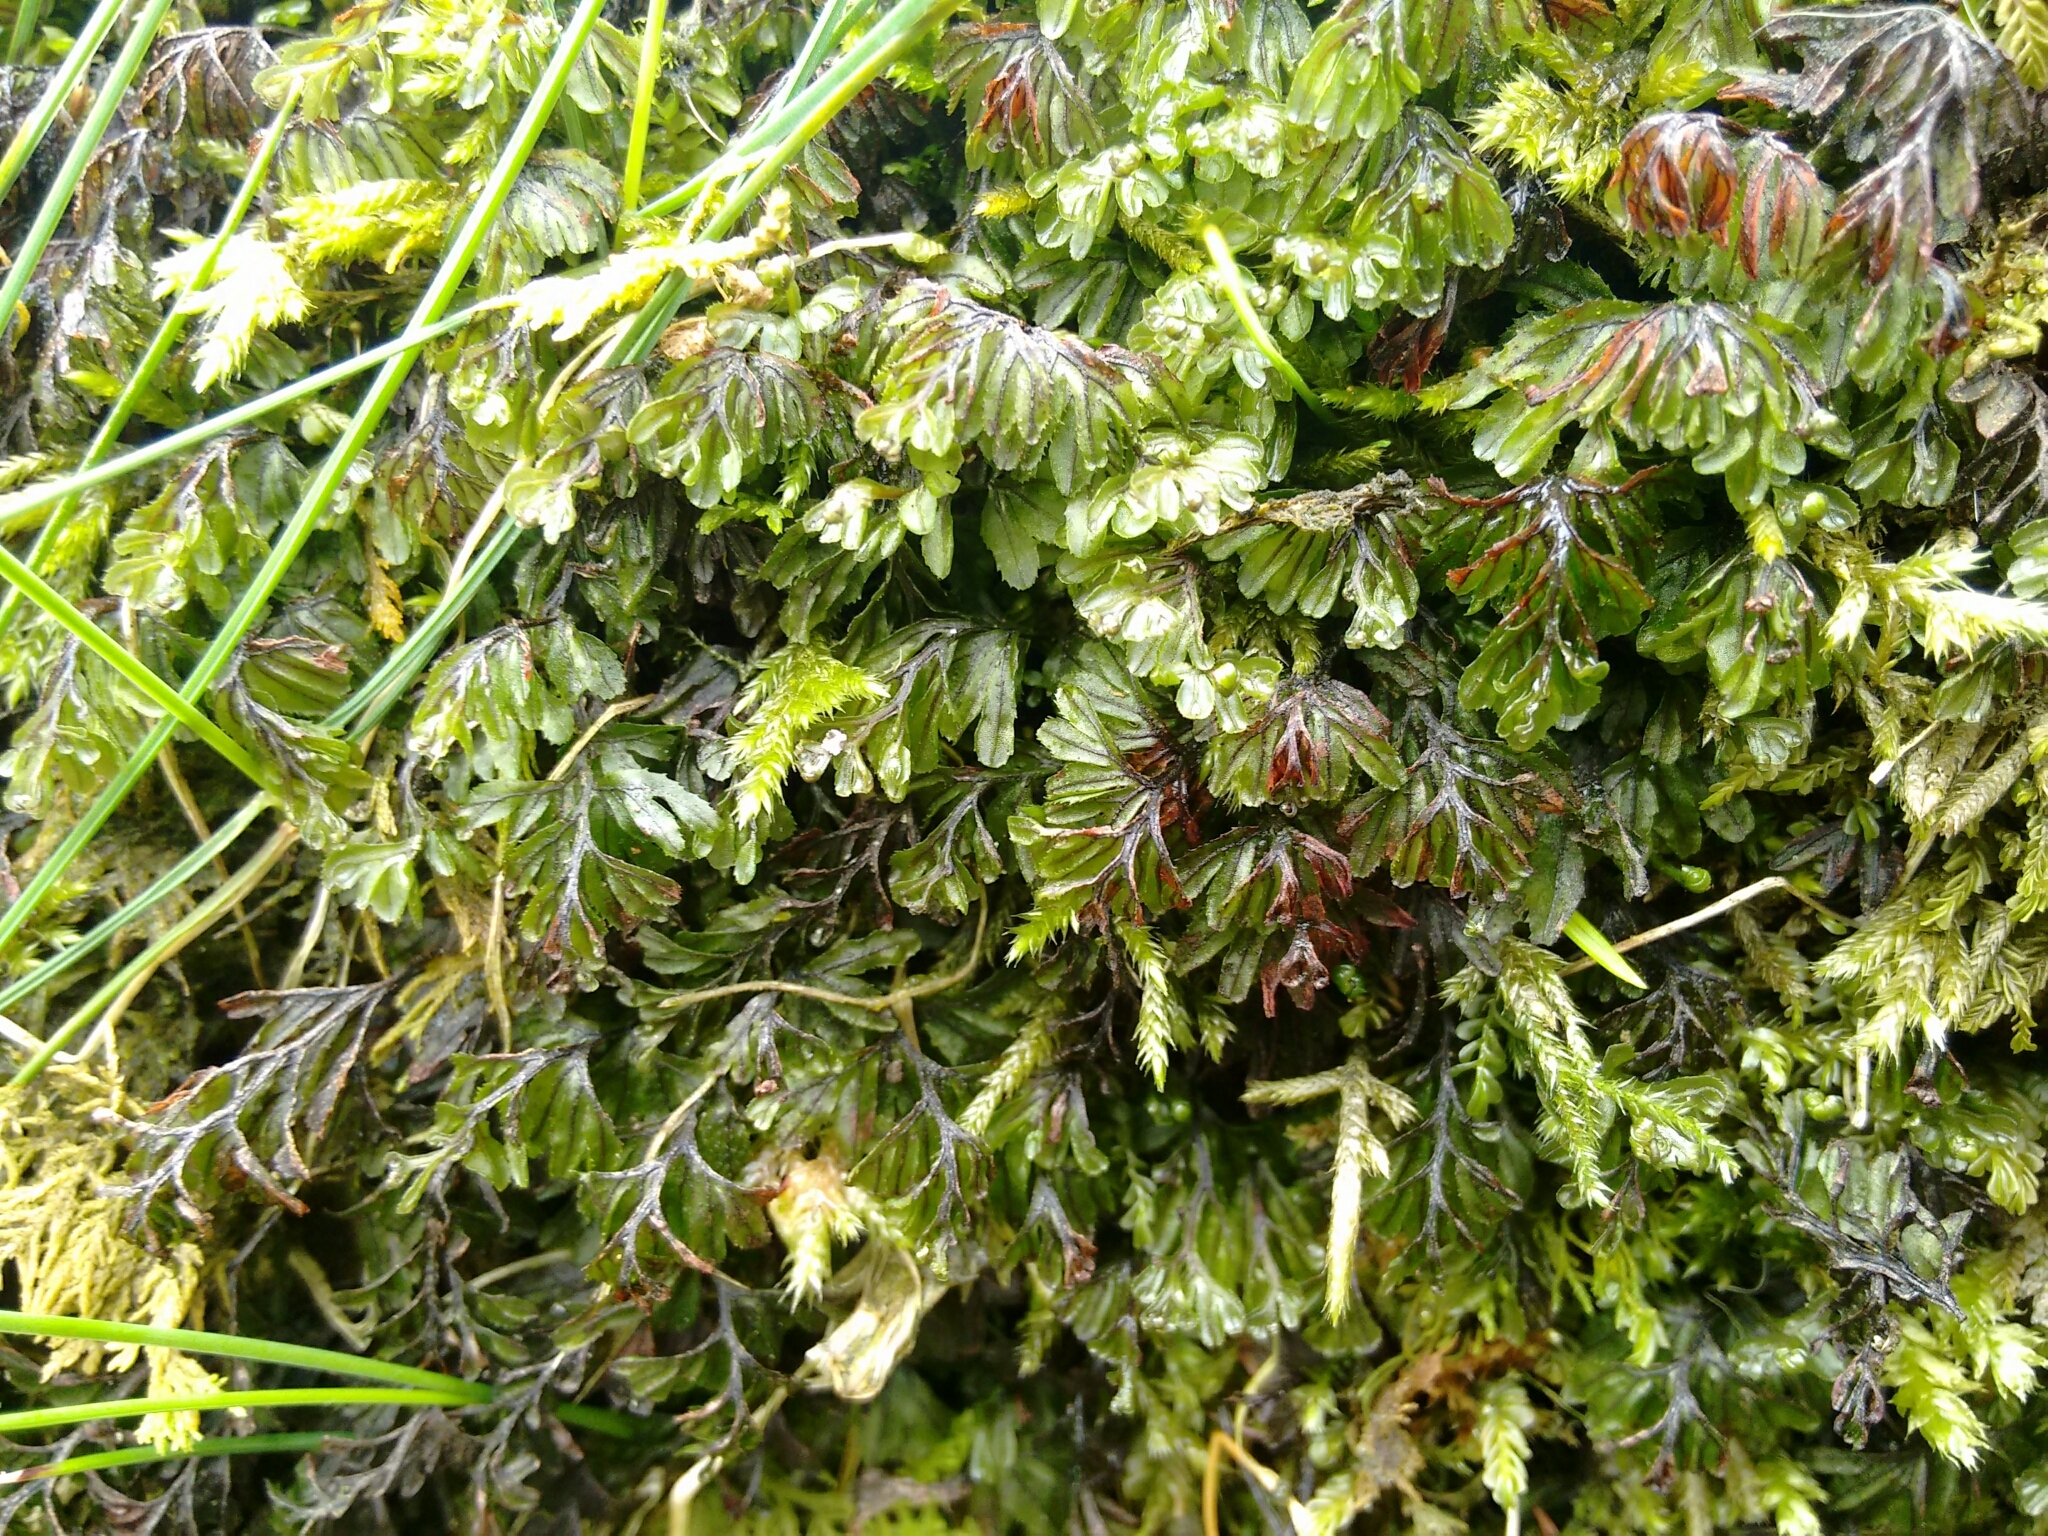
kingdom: Plantae
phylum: Tracheophyta
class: Polypodiopsida
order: Hymenophyllales
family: Hymenophyllaceae
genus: Hymenophyllum
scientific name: Hymenophyllum wilsonii
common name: Wilson's filmy fern
